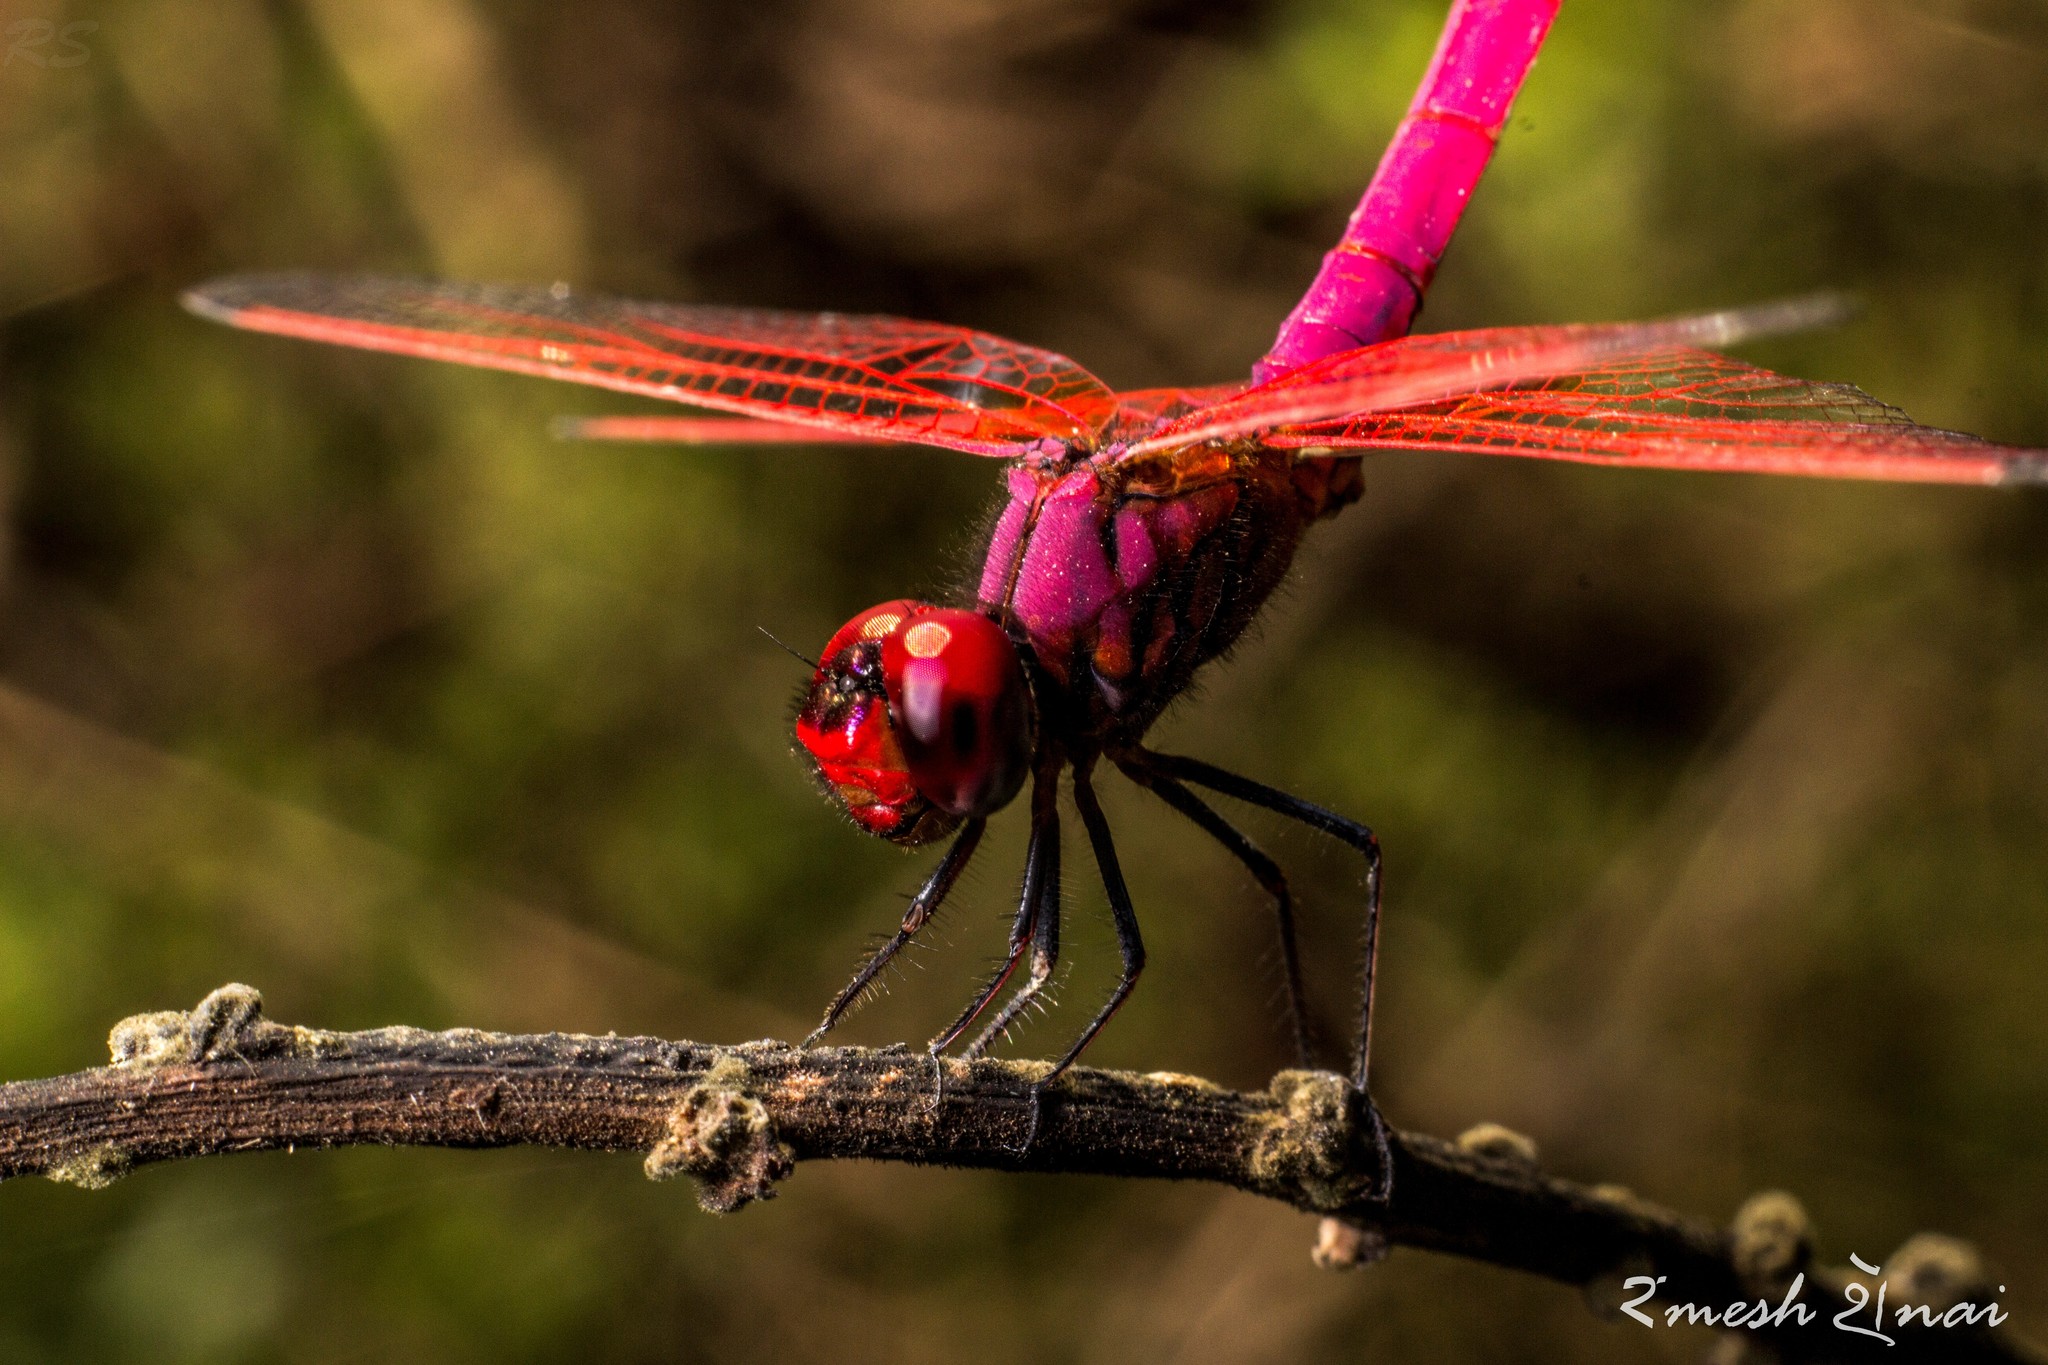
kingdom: Animalia
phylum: Arthropoda
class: Insecta
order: Odonata
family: Libellulidae
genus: Trithemis
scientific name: Trithemis aurora
